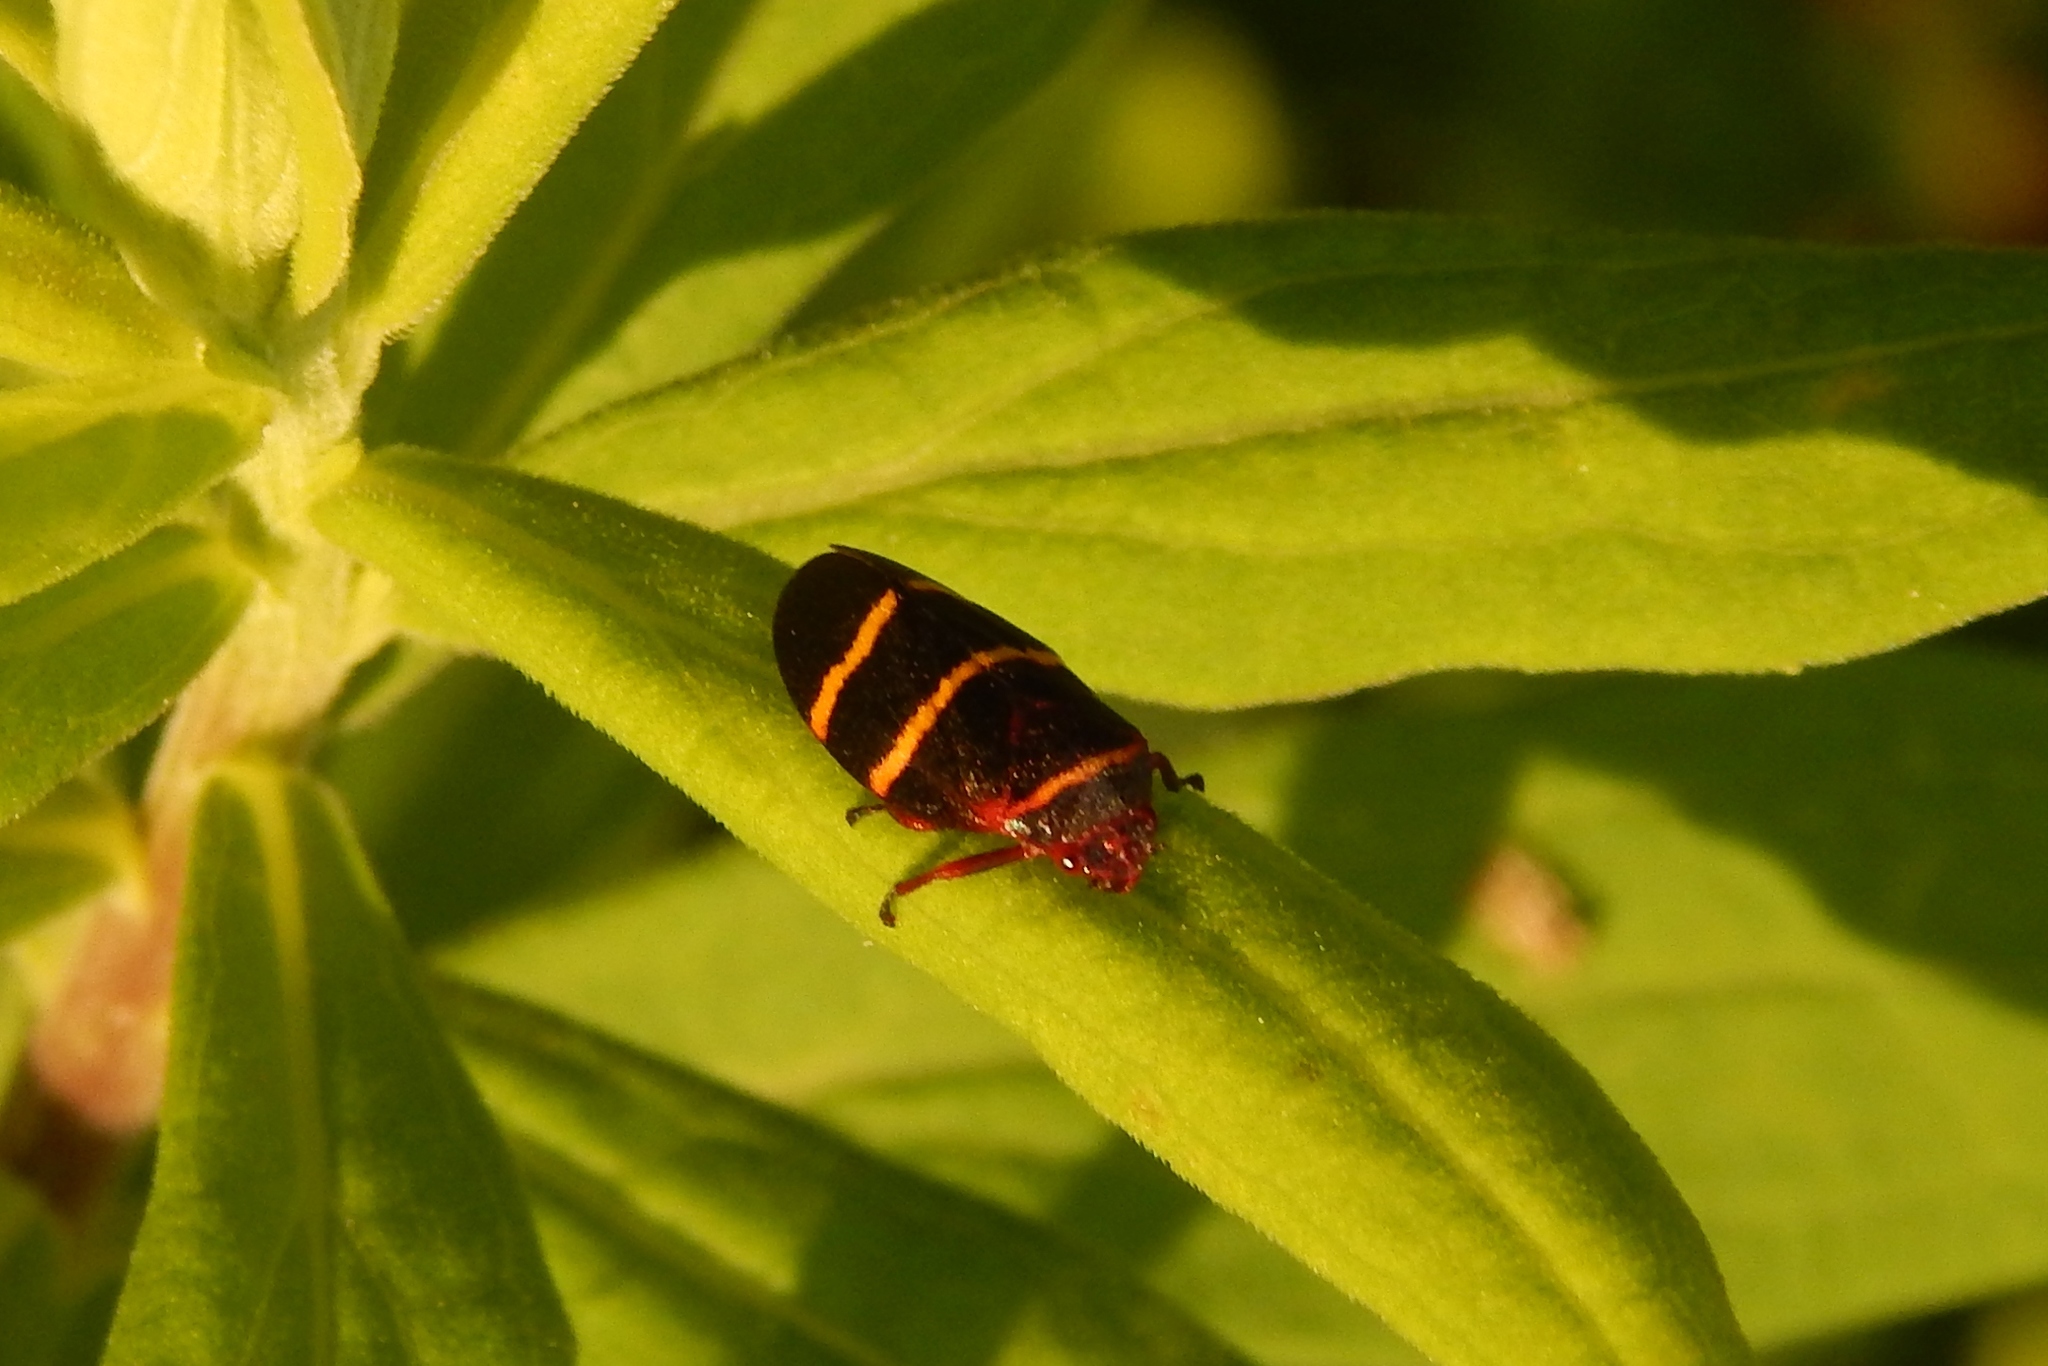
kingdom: Animalia
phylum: Arthropoda
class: Insecta
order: Hemiptera
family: Cercopidae
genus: Prosapia
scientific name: Prosapia bicincta
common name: Twolined spittlebug
